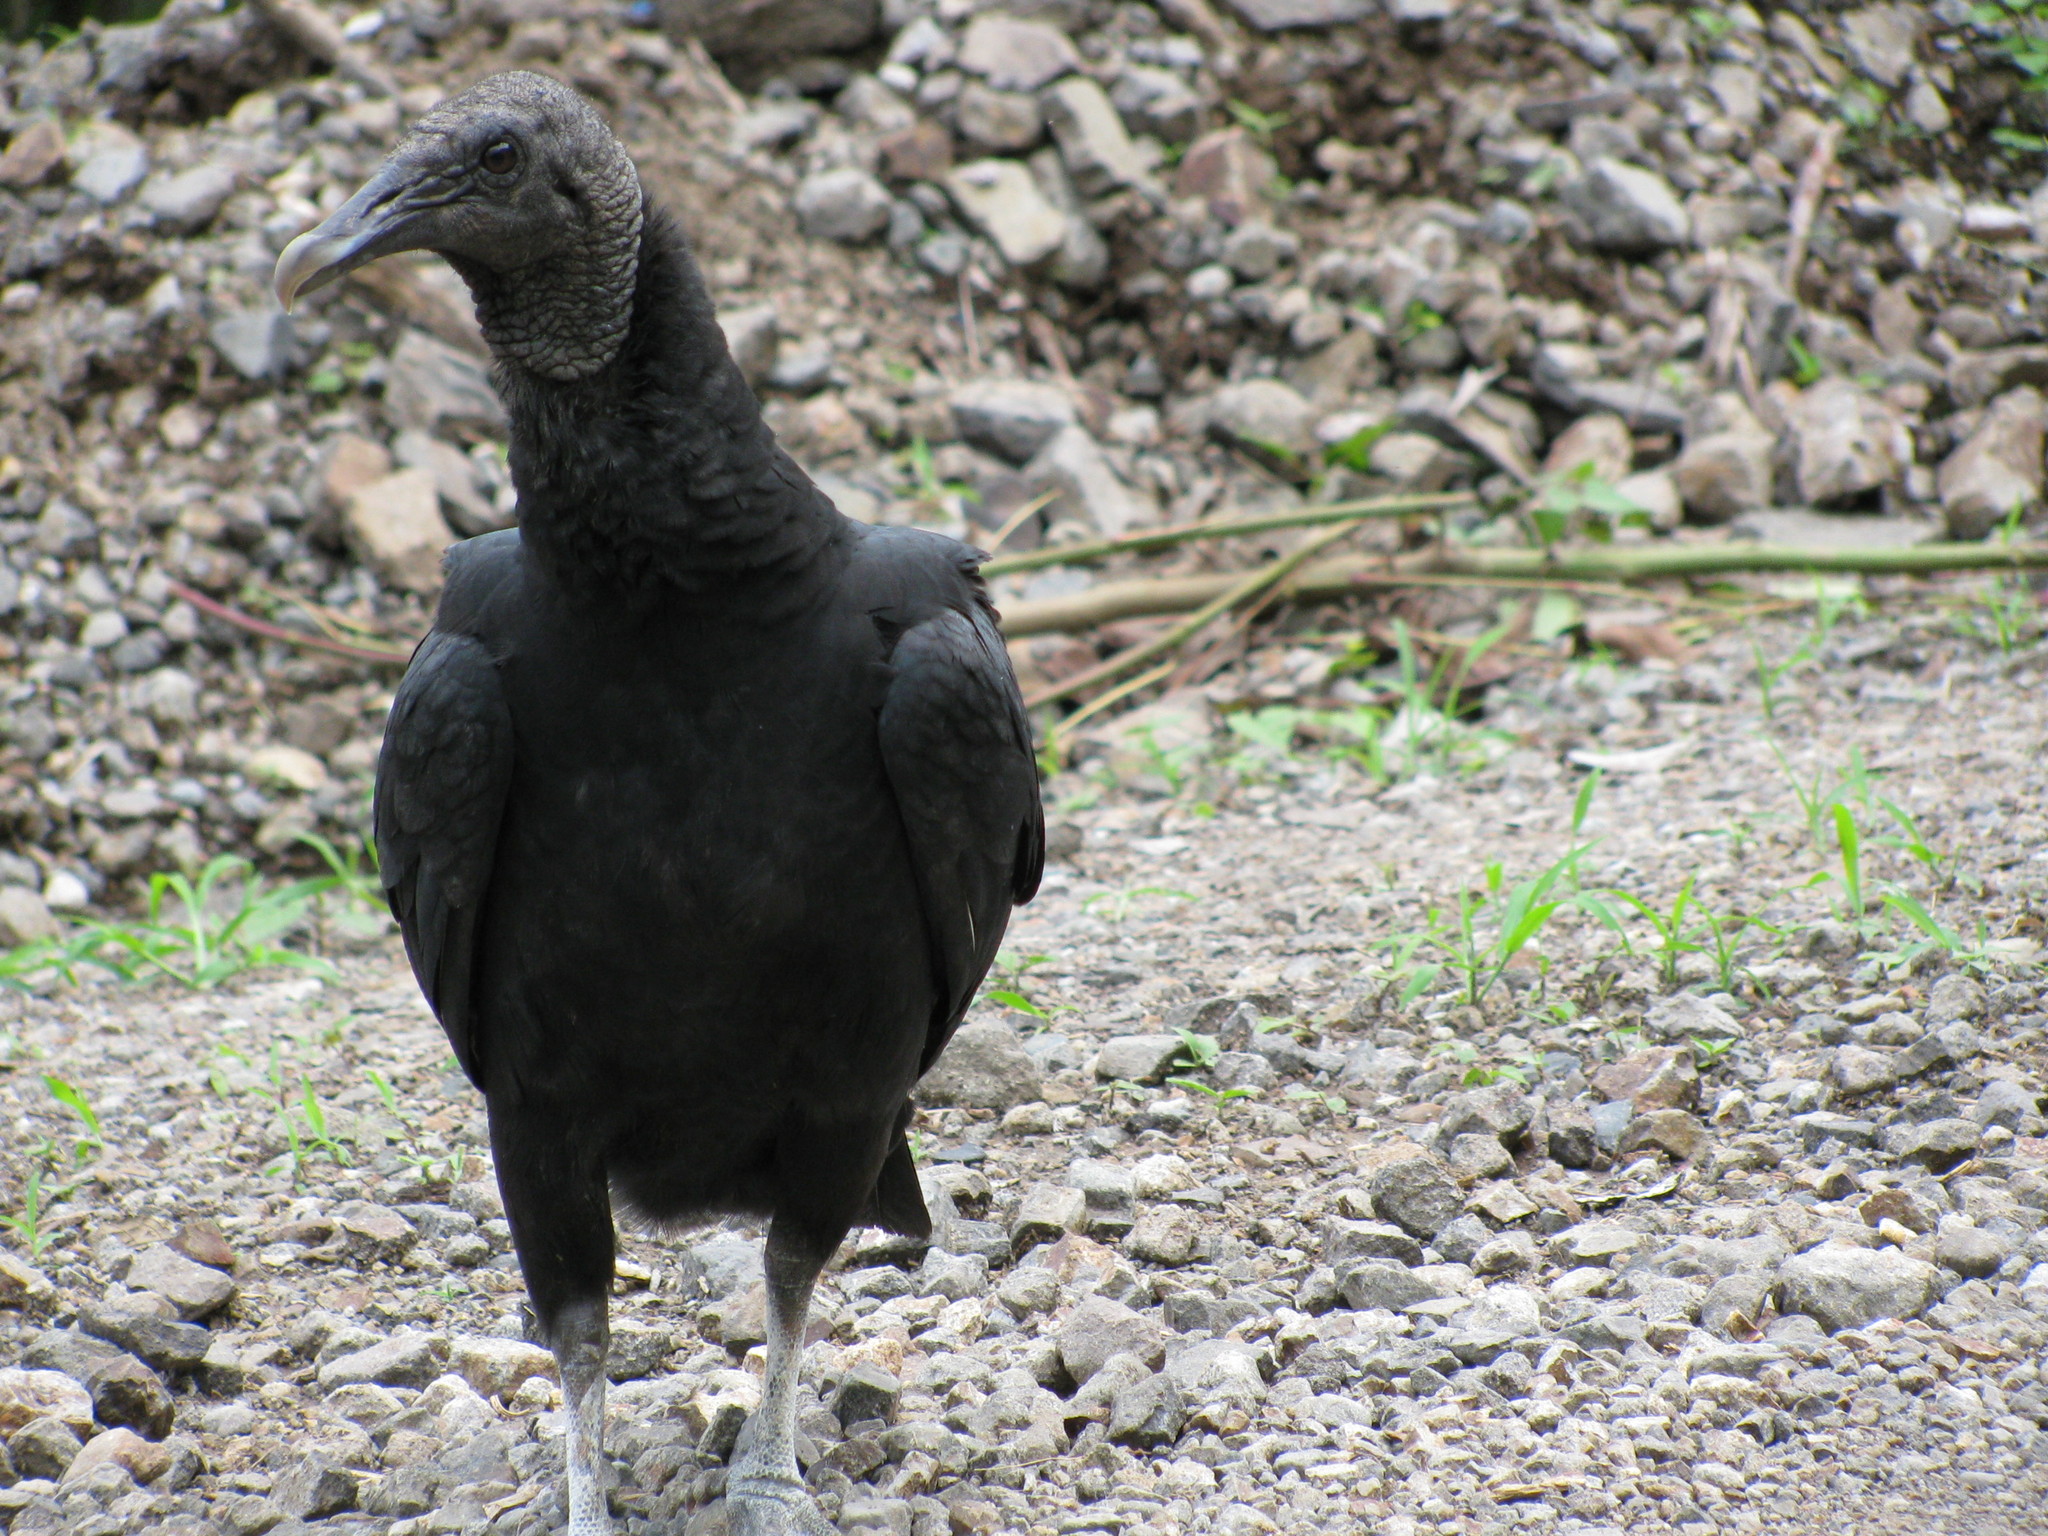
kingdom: Animalia
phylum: Chordata
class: Aves
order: Accipitriformes
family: Cathartidae
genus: Coragyps
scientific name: Coragyps atratus
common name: Black vulture
